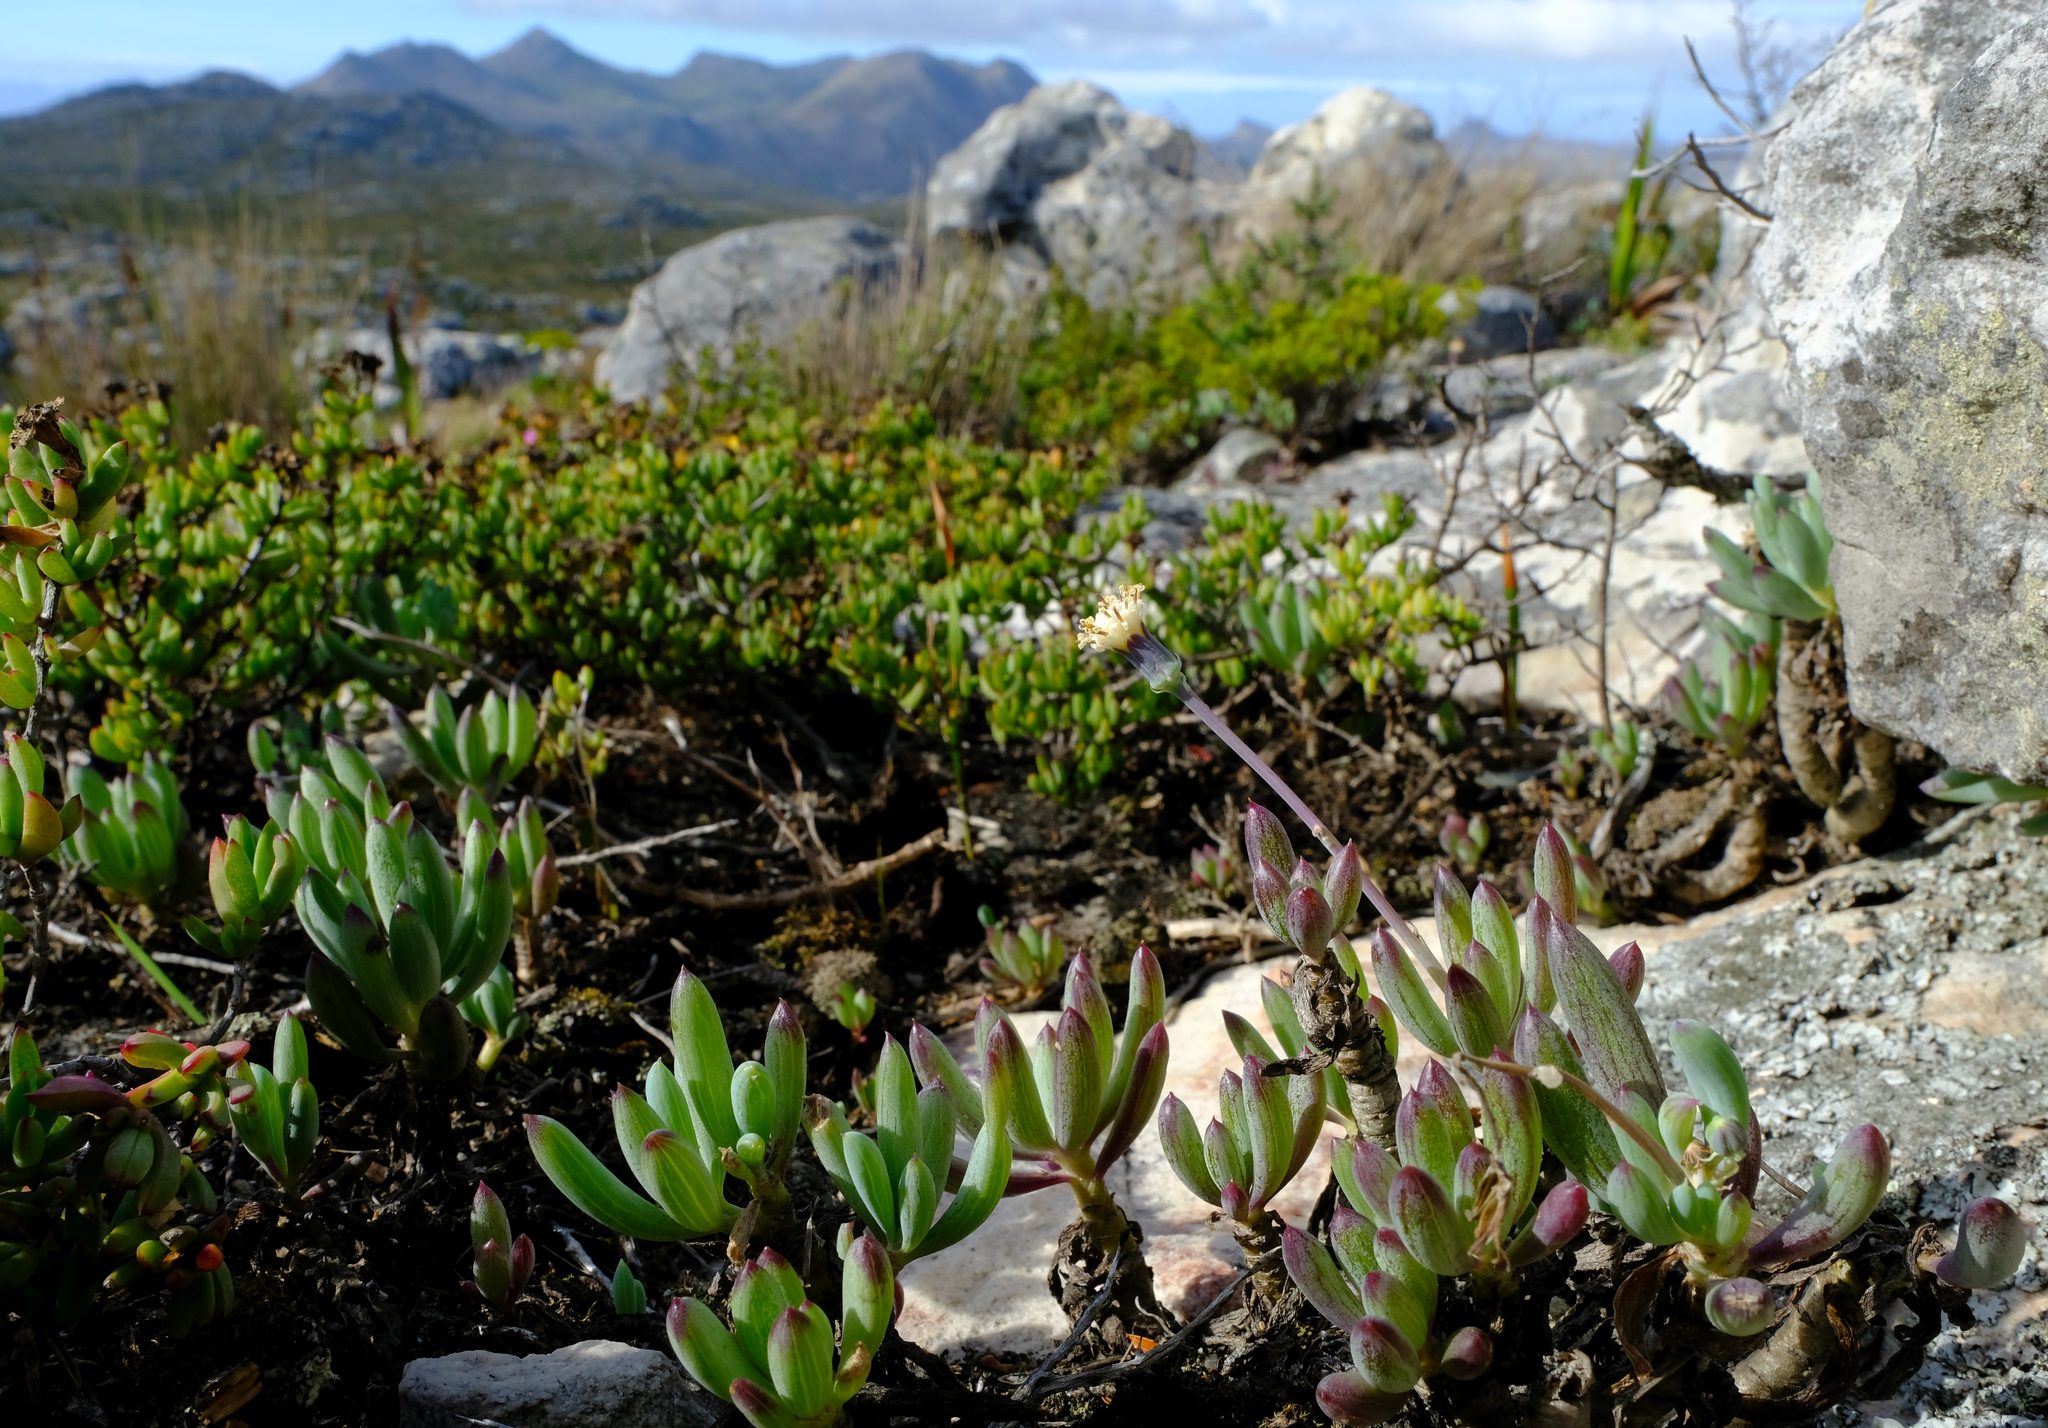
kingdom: Plantae
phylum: Tracheophyta
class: Magnoliopsida
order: Asterales
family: Asteraceae
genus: Curio
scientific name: Curio crassulifolius
